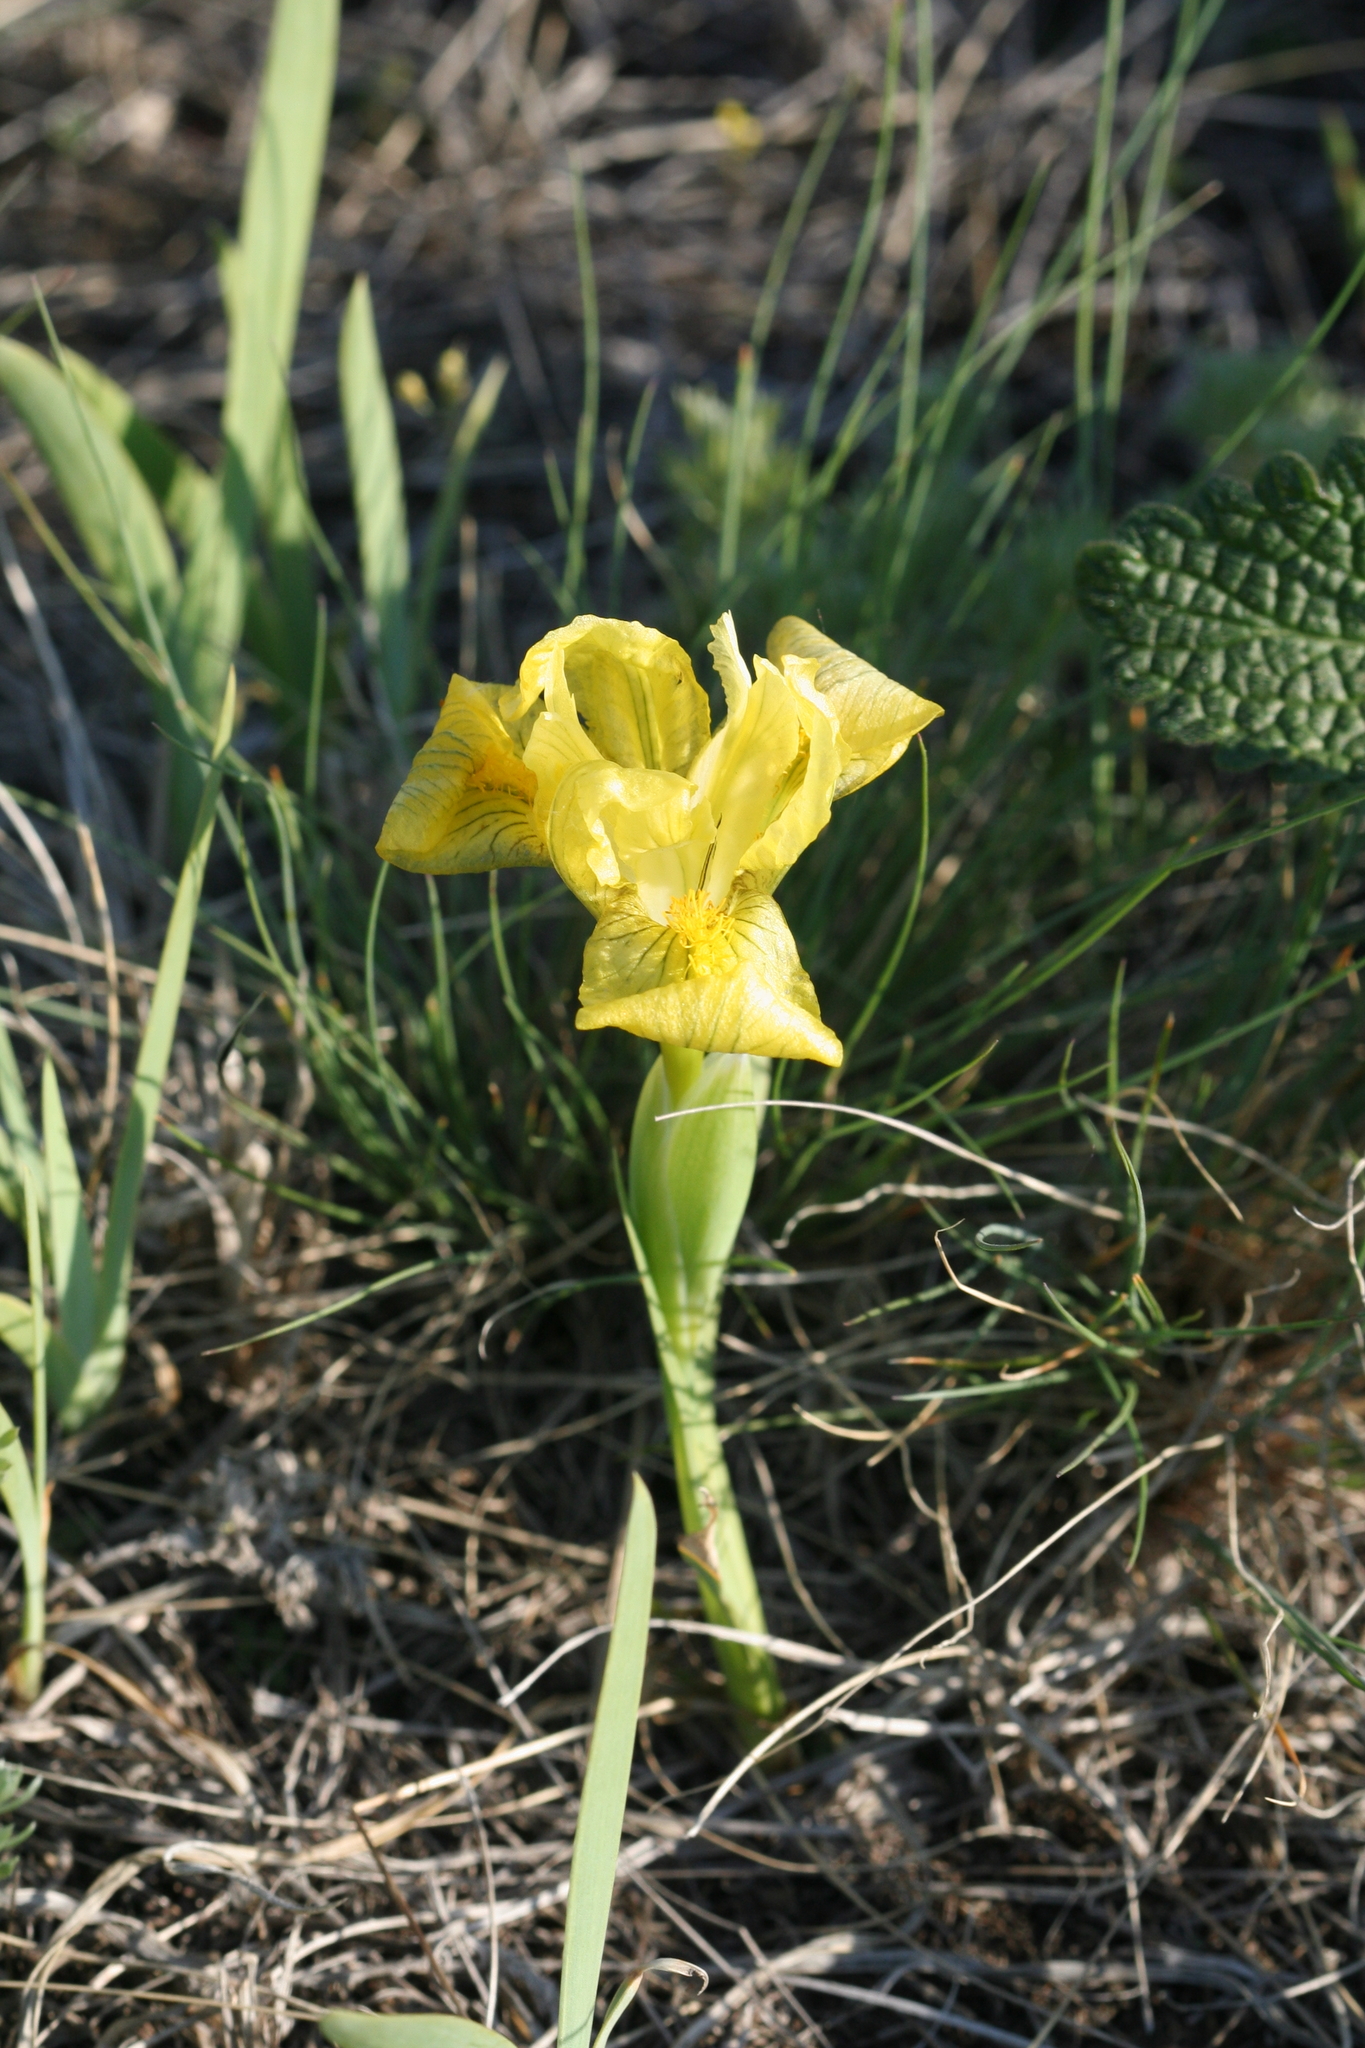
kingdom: Plantae
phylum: Tracheophyta
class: Liliopsida
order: Asparagales
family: Iridaceae
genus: Iris
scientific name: Iris humilis
